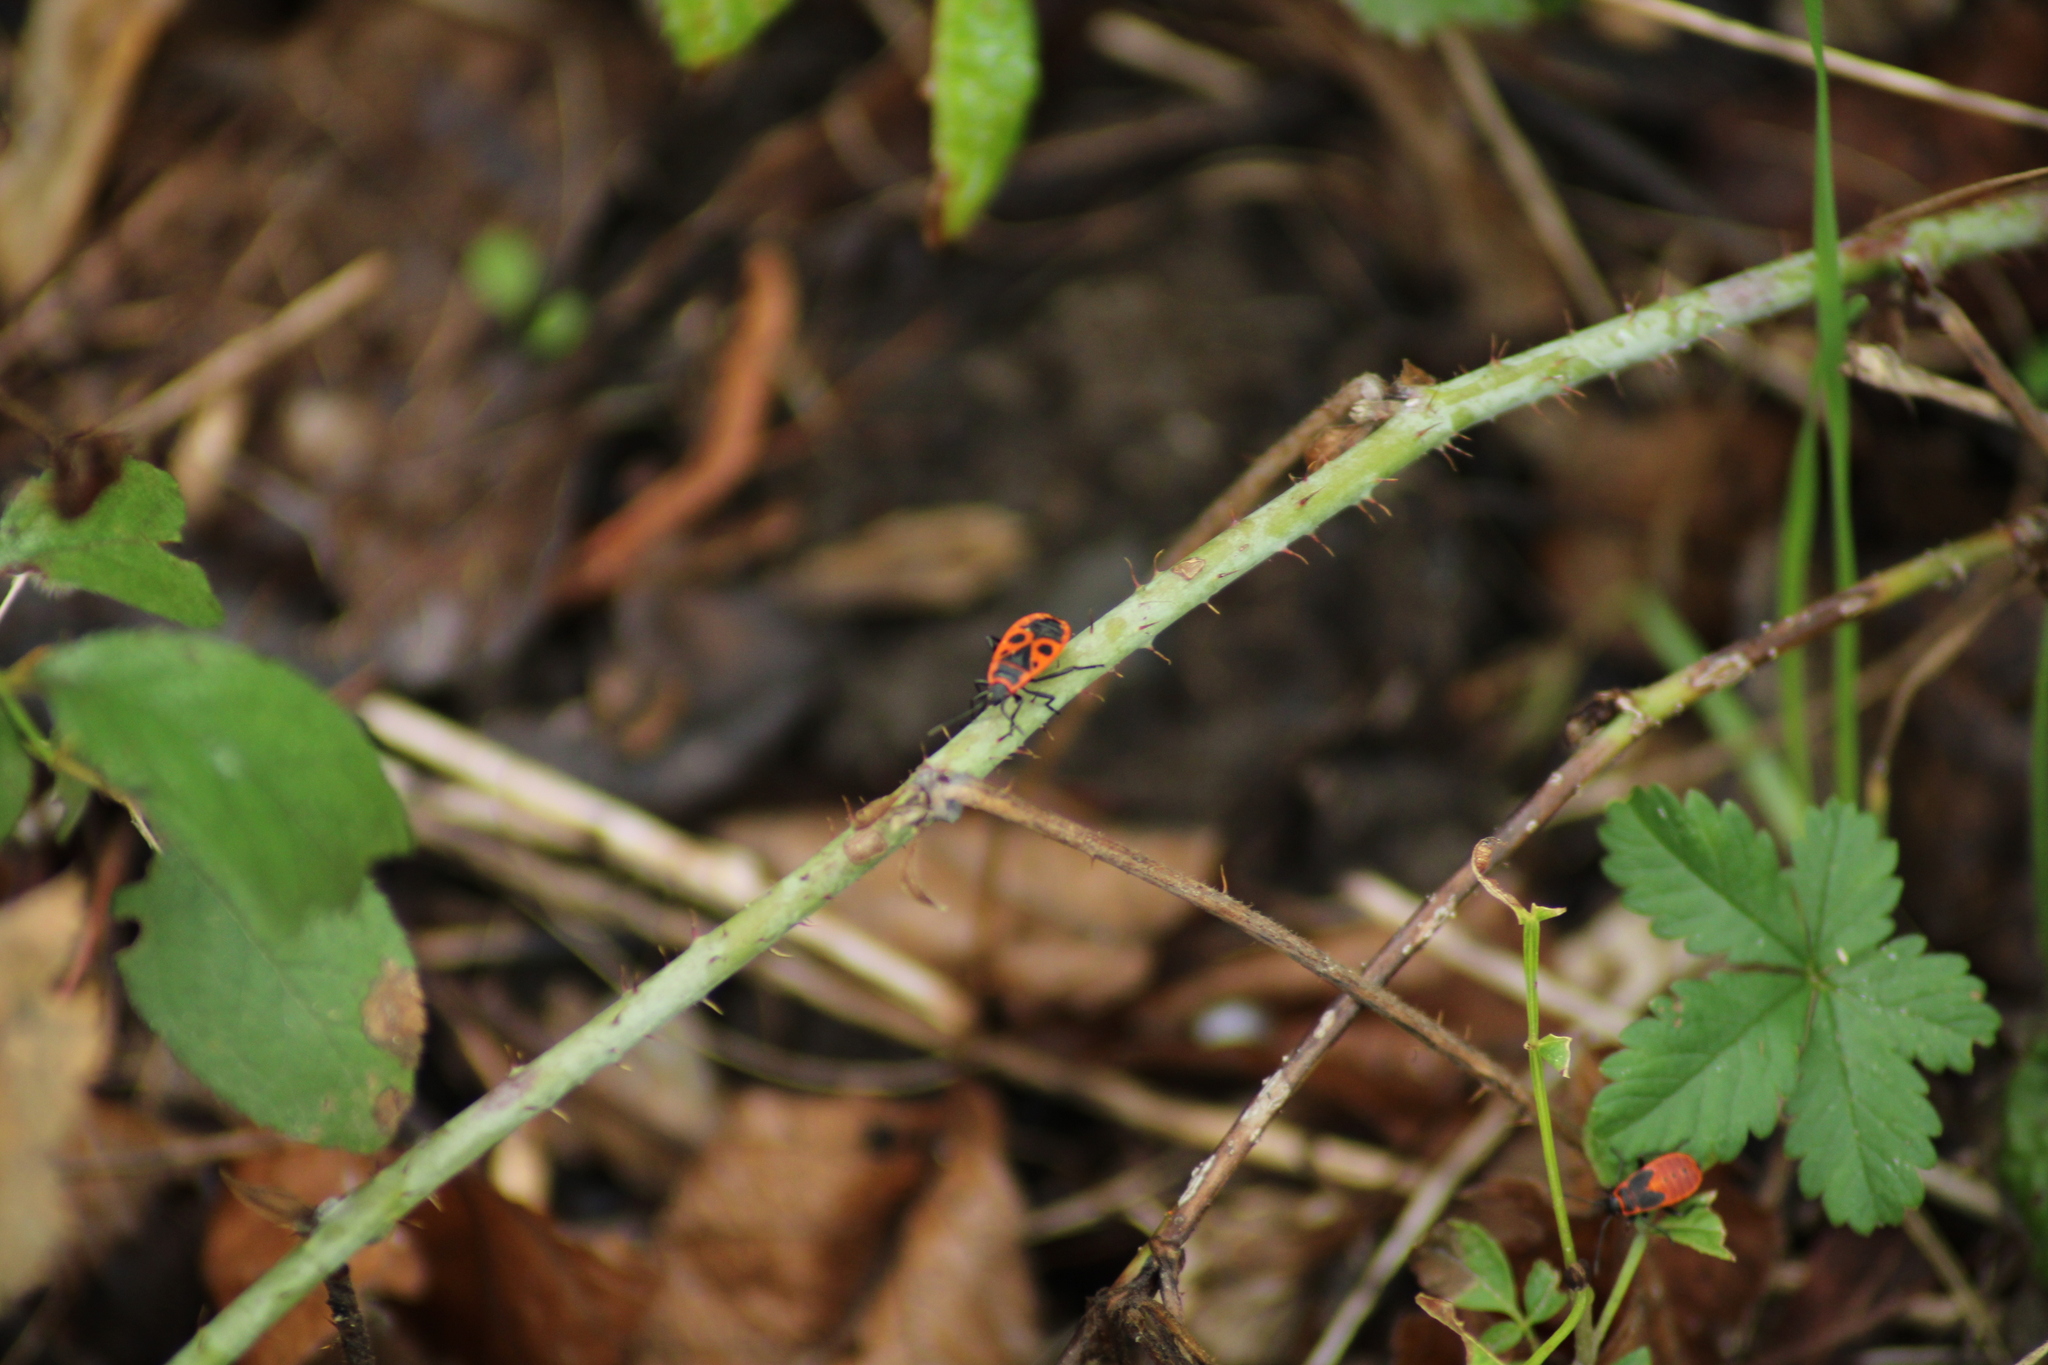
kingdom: Animalia
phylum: Arthropoda
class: Insecta
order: Hemiptera
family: Pyrrhocoridae
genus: Pyrrhocoris
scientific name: Pyrrhocoris apterus
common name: Firebug
